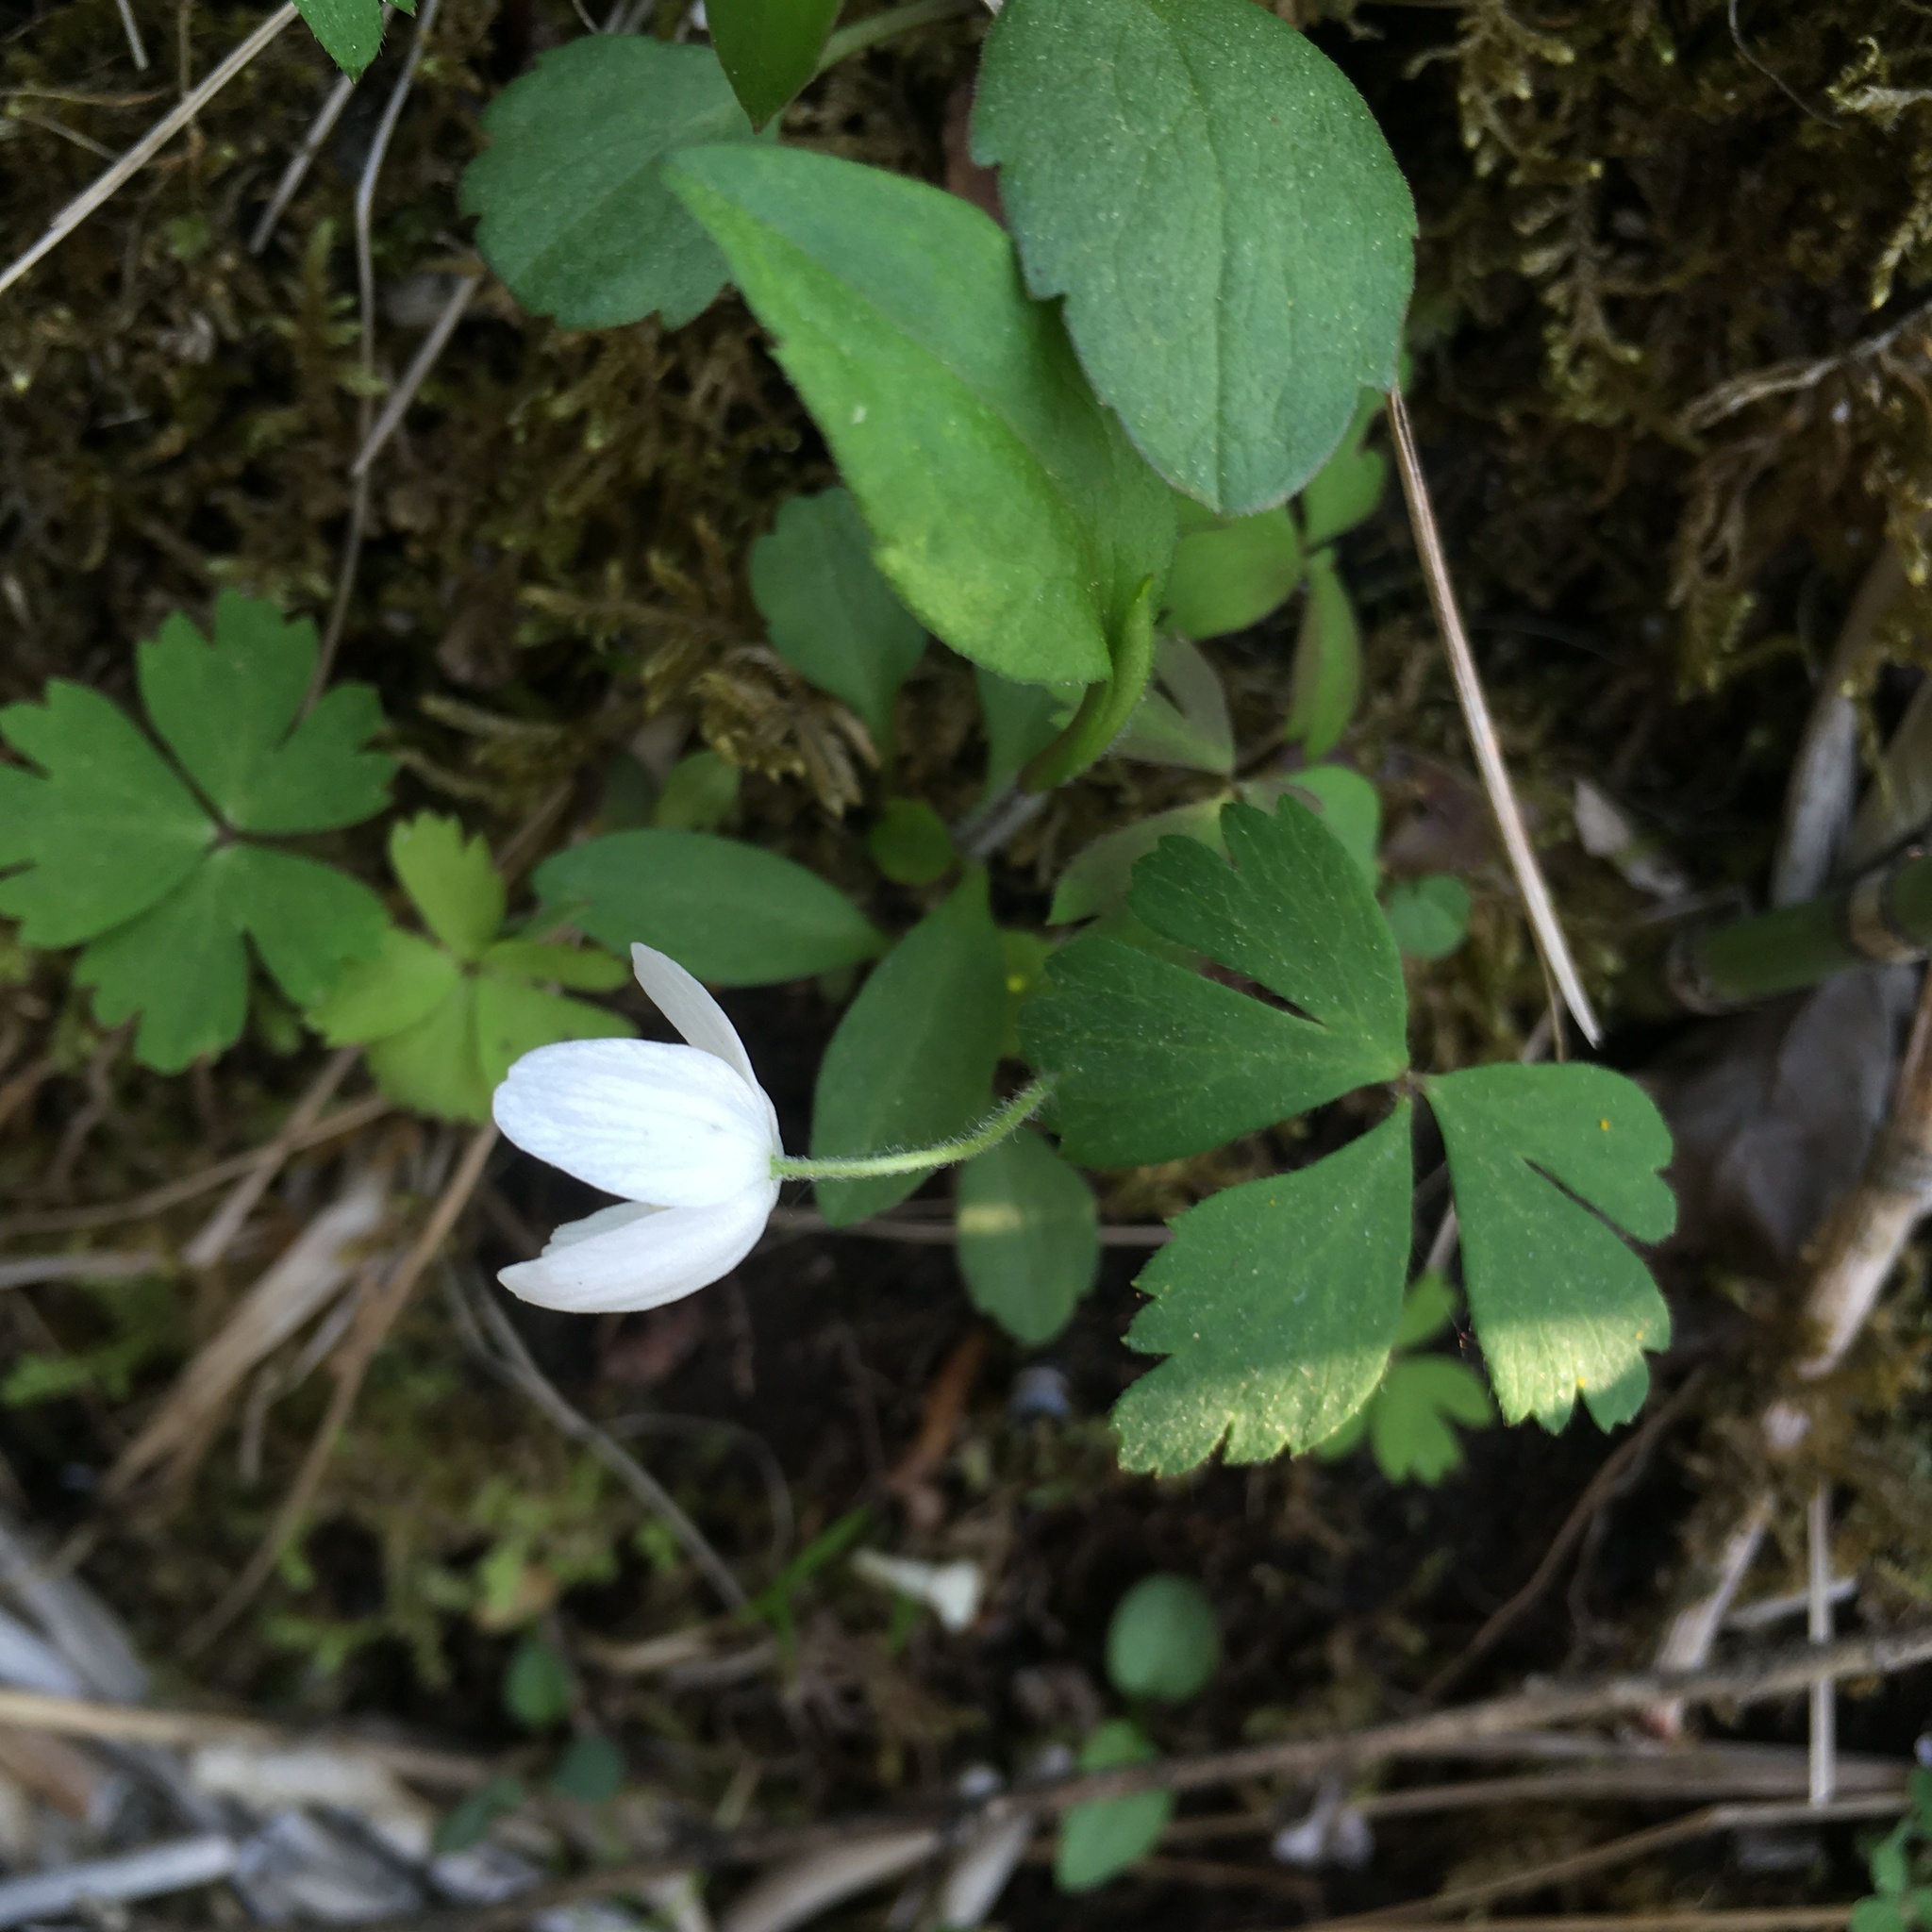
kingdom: Plantae
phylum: Tracheophyta
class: Magnoliopsida
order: Ranunculales
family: Ranunculaceae
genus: Anemone
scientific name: Anemone quinquefolia
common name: Wood anemone
